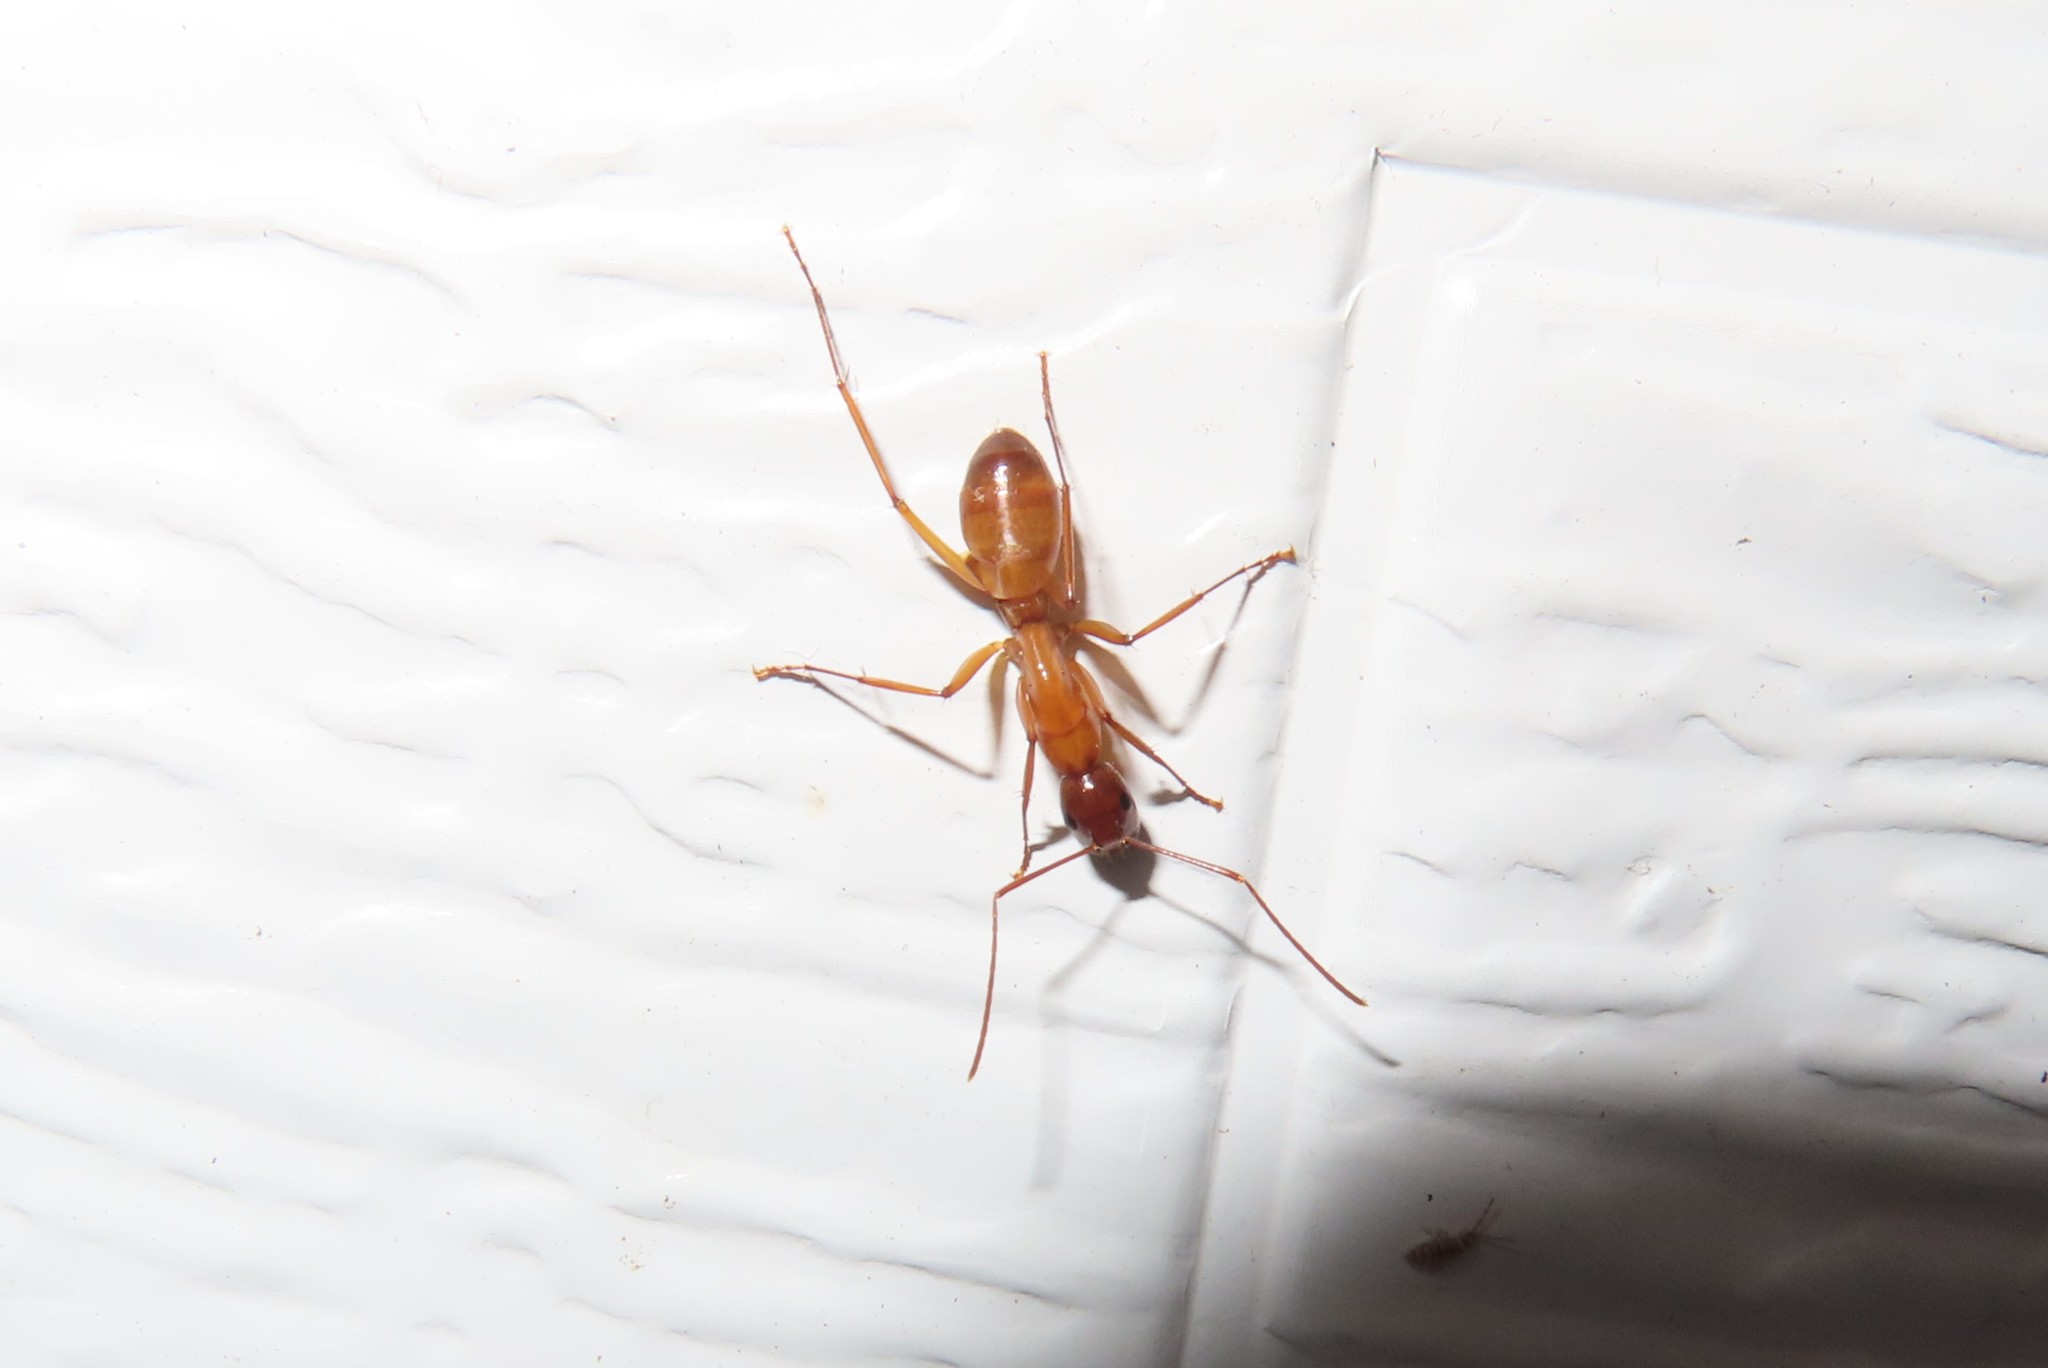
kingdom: Animalia
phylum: Arthropoda
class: Insecta
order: Hymenoptera
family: Formicidae
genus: Camponotus
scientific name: Camponotus castaneus
